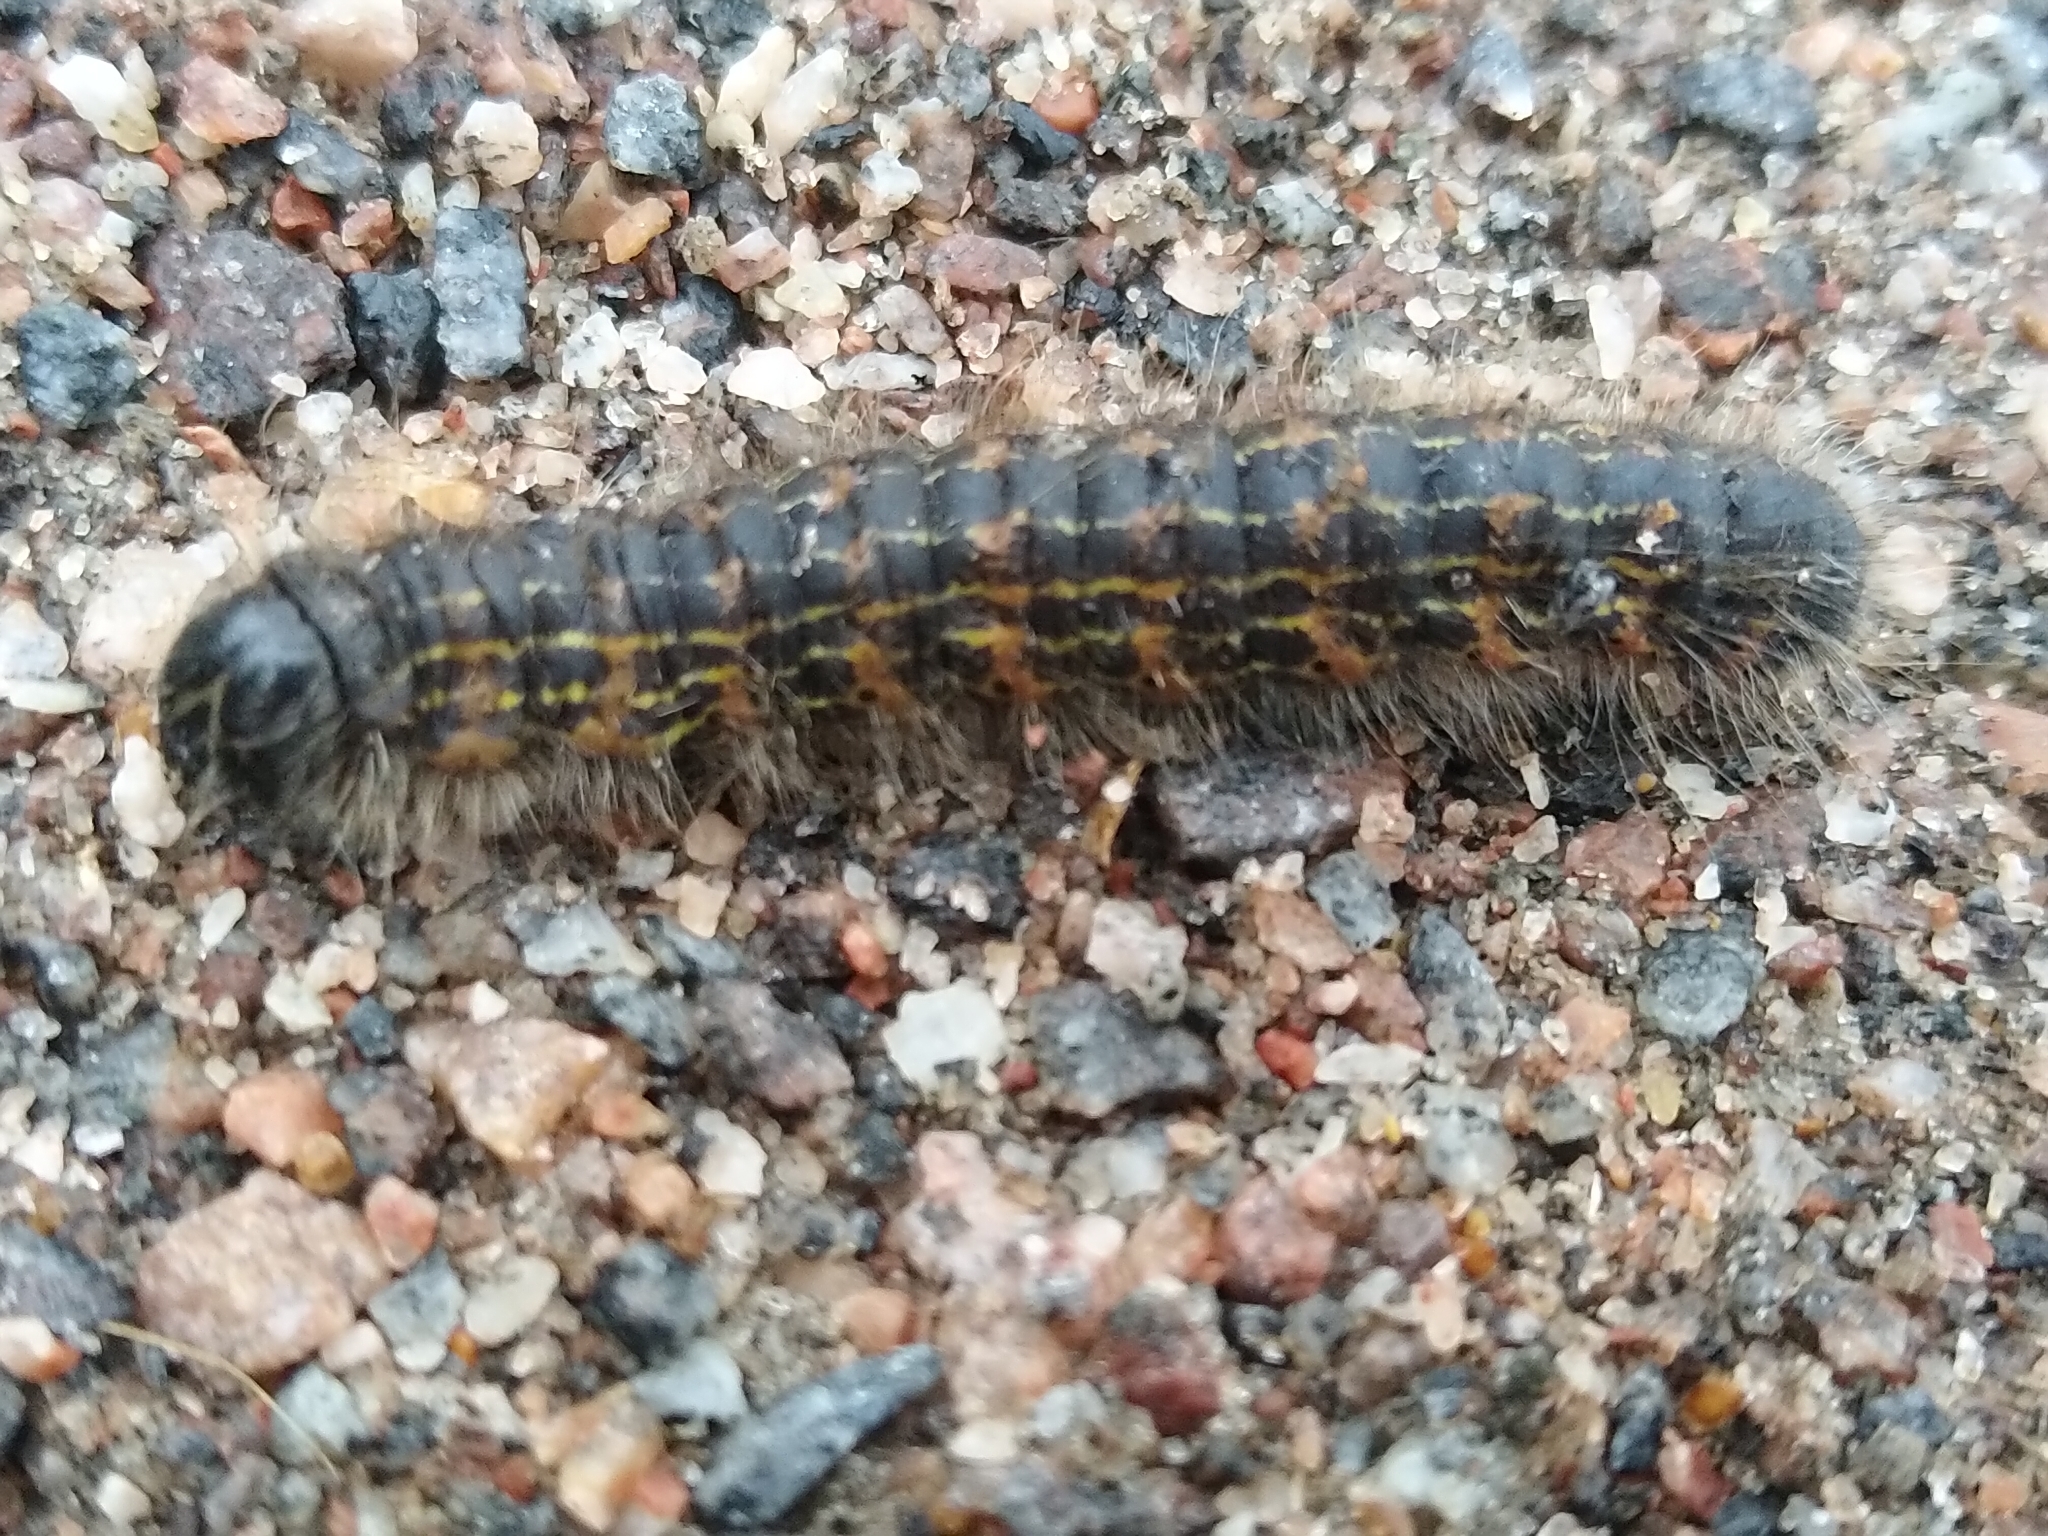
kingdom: Animalia
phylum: Arthropoda
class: Insecta
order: Lepidoptera
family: Notodontidae
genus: Phalera
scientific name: Phalera bucephala
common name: Buff-tip
